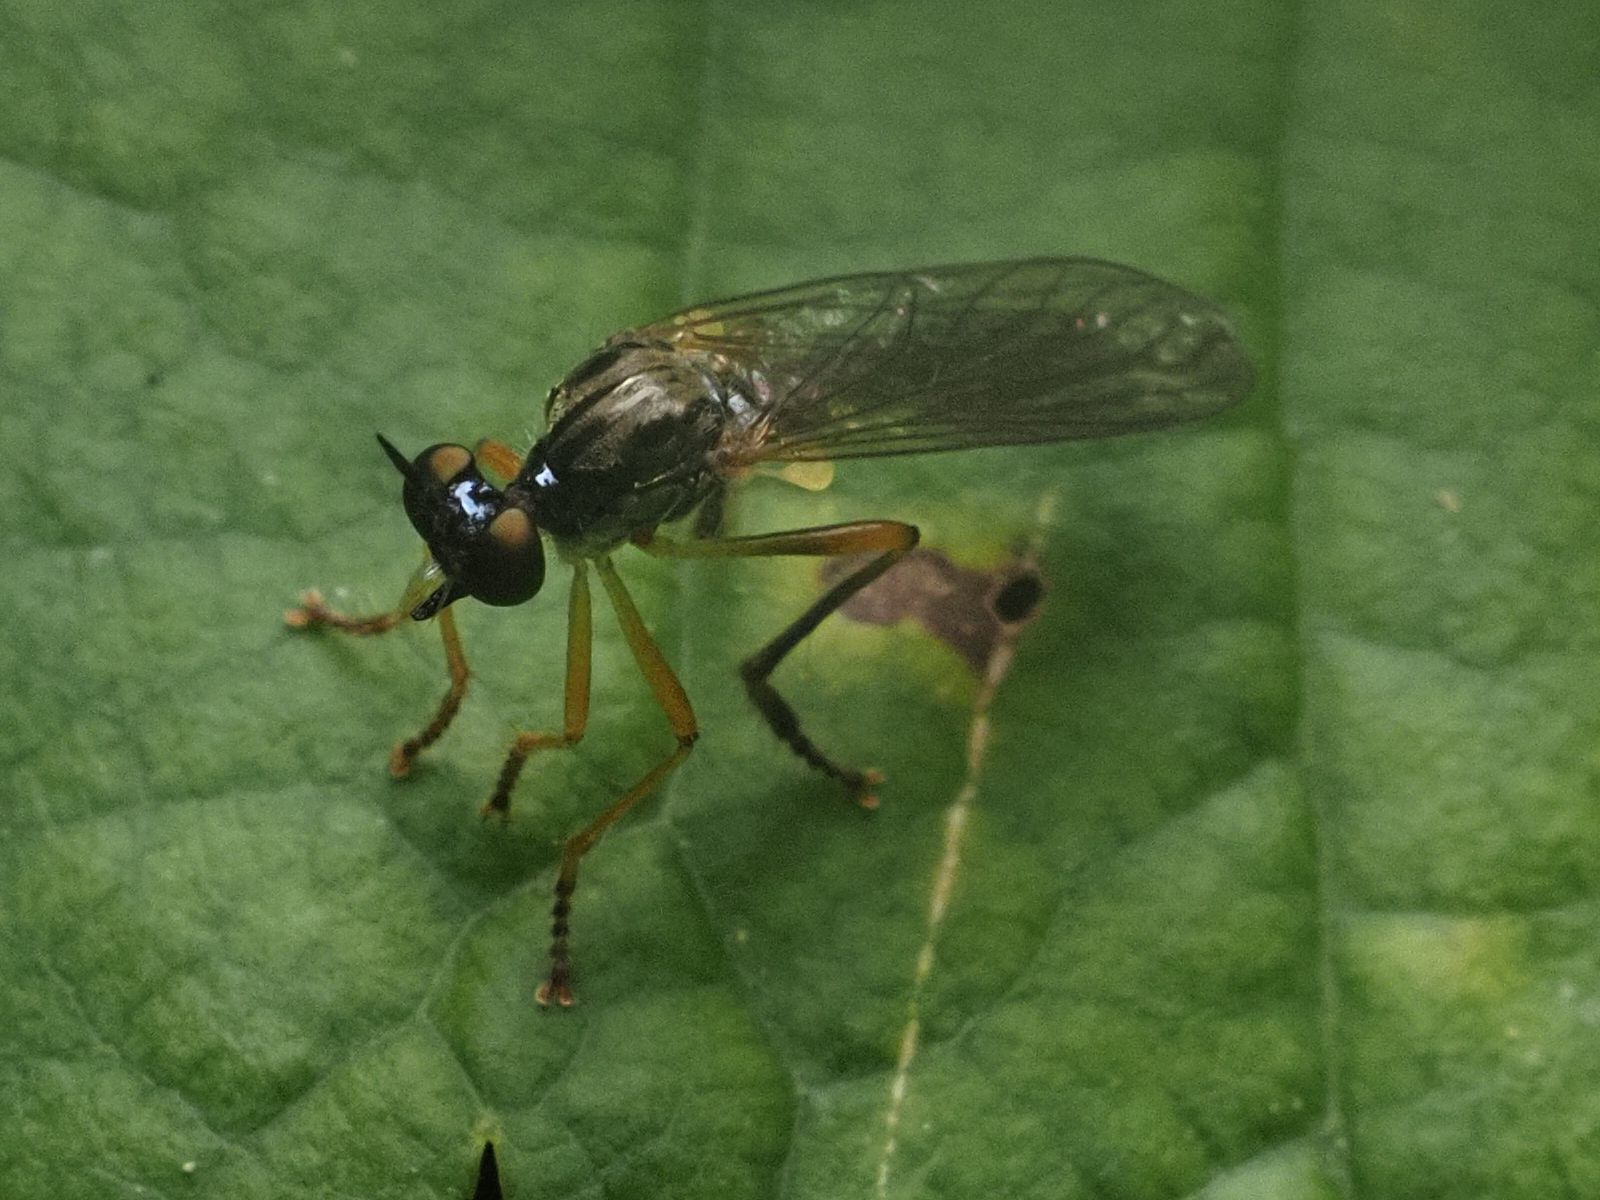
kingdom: Animalia
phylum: Arthropoda
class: Insecta
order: Diptera
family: Asilidae
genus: Dioctria
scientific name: Dioctria linearis
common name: Small yellow-legged robberfly
